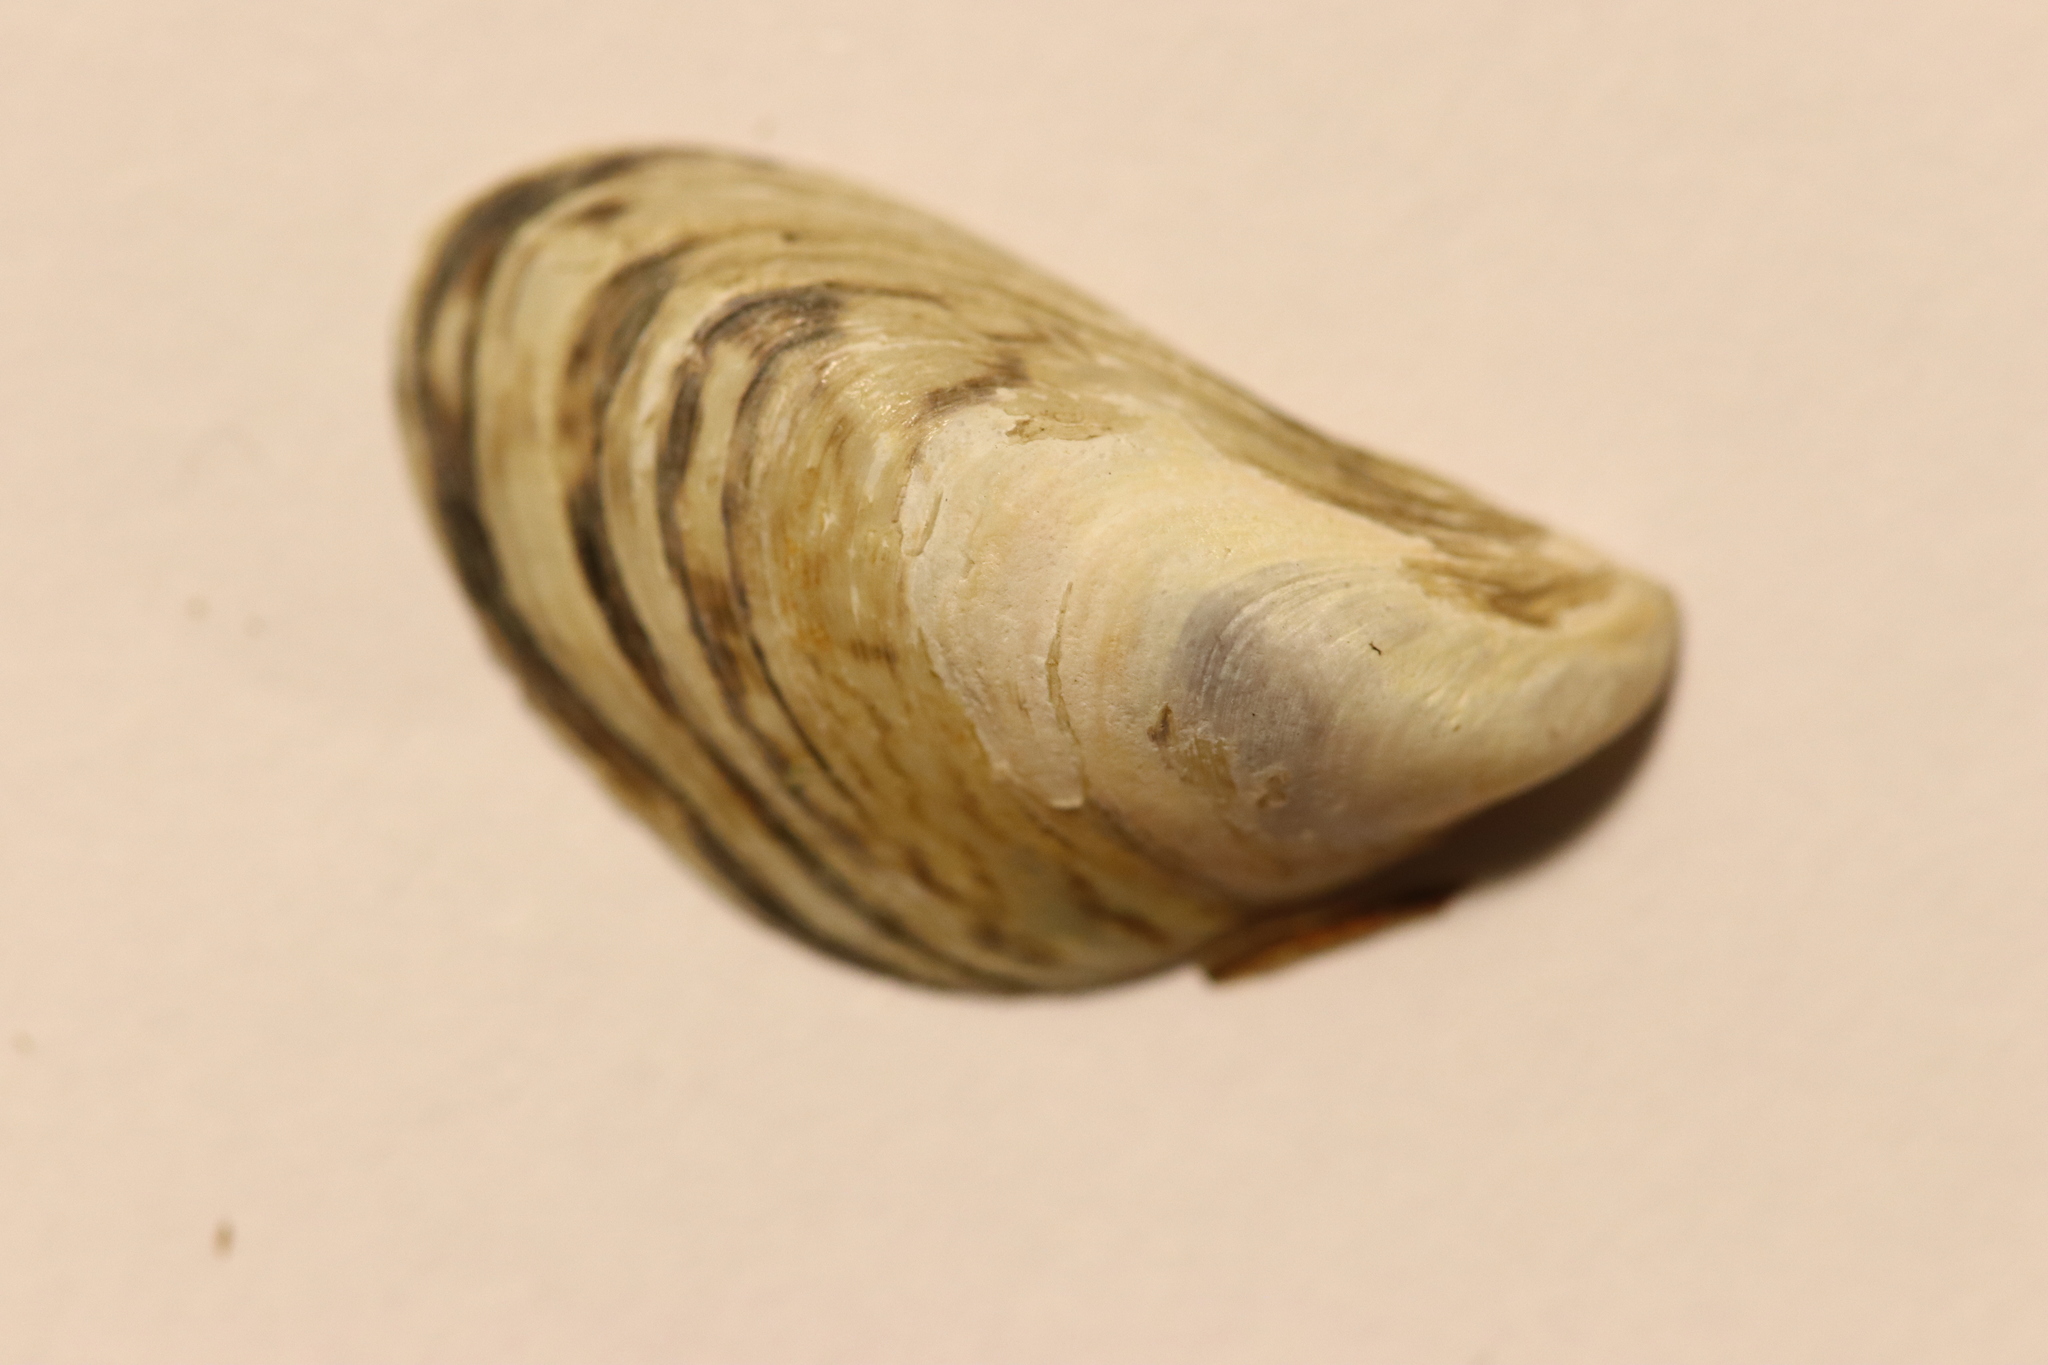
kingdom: Animalia
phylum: Mollusca
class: Bivalvia
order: Myida
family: Dreissenidae
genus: Dreissena
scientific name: Dreissena bugensis
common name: Quagga mussel
